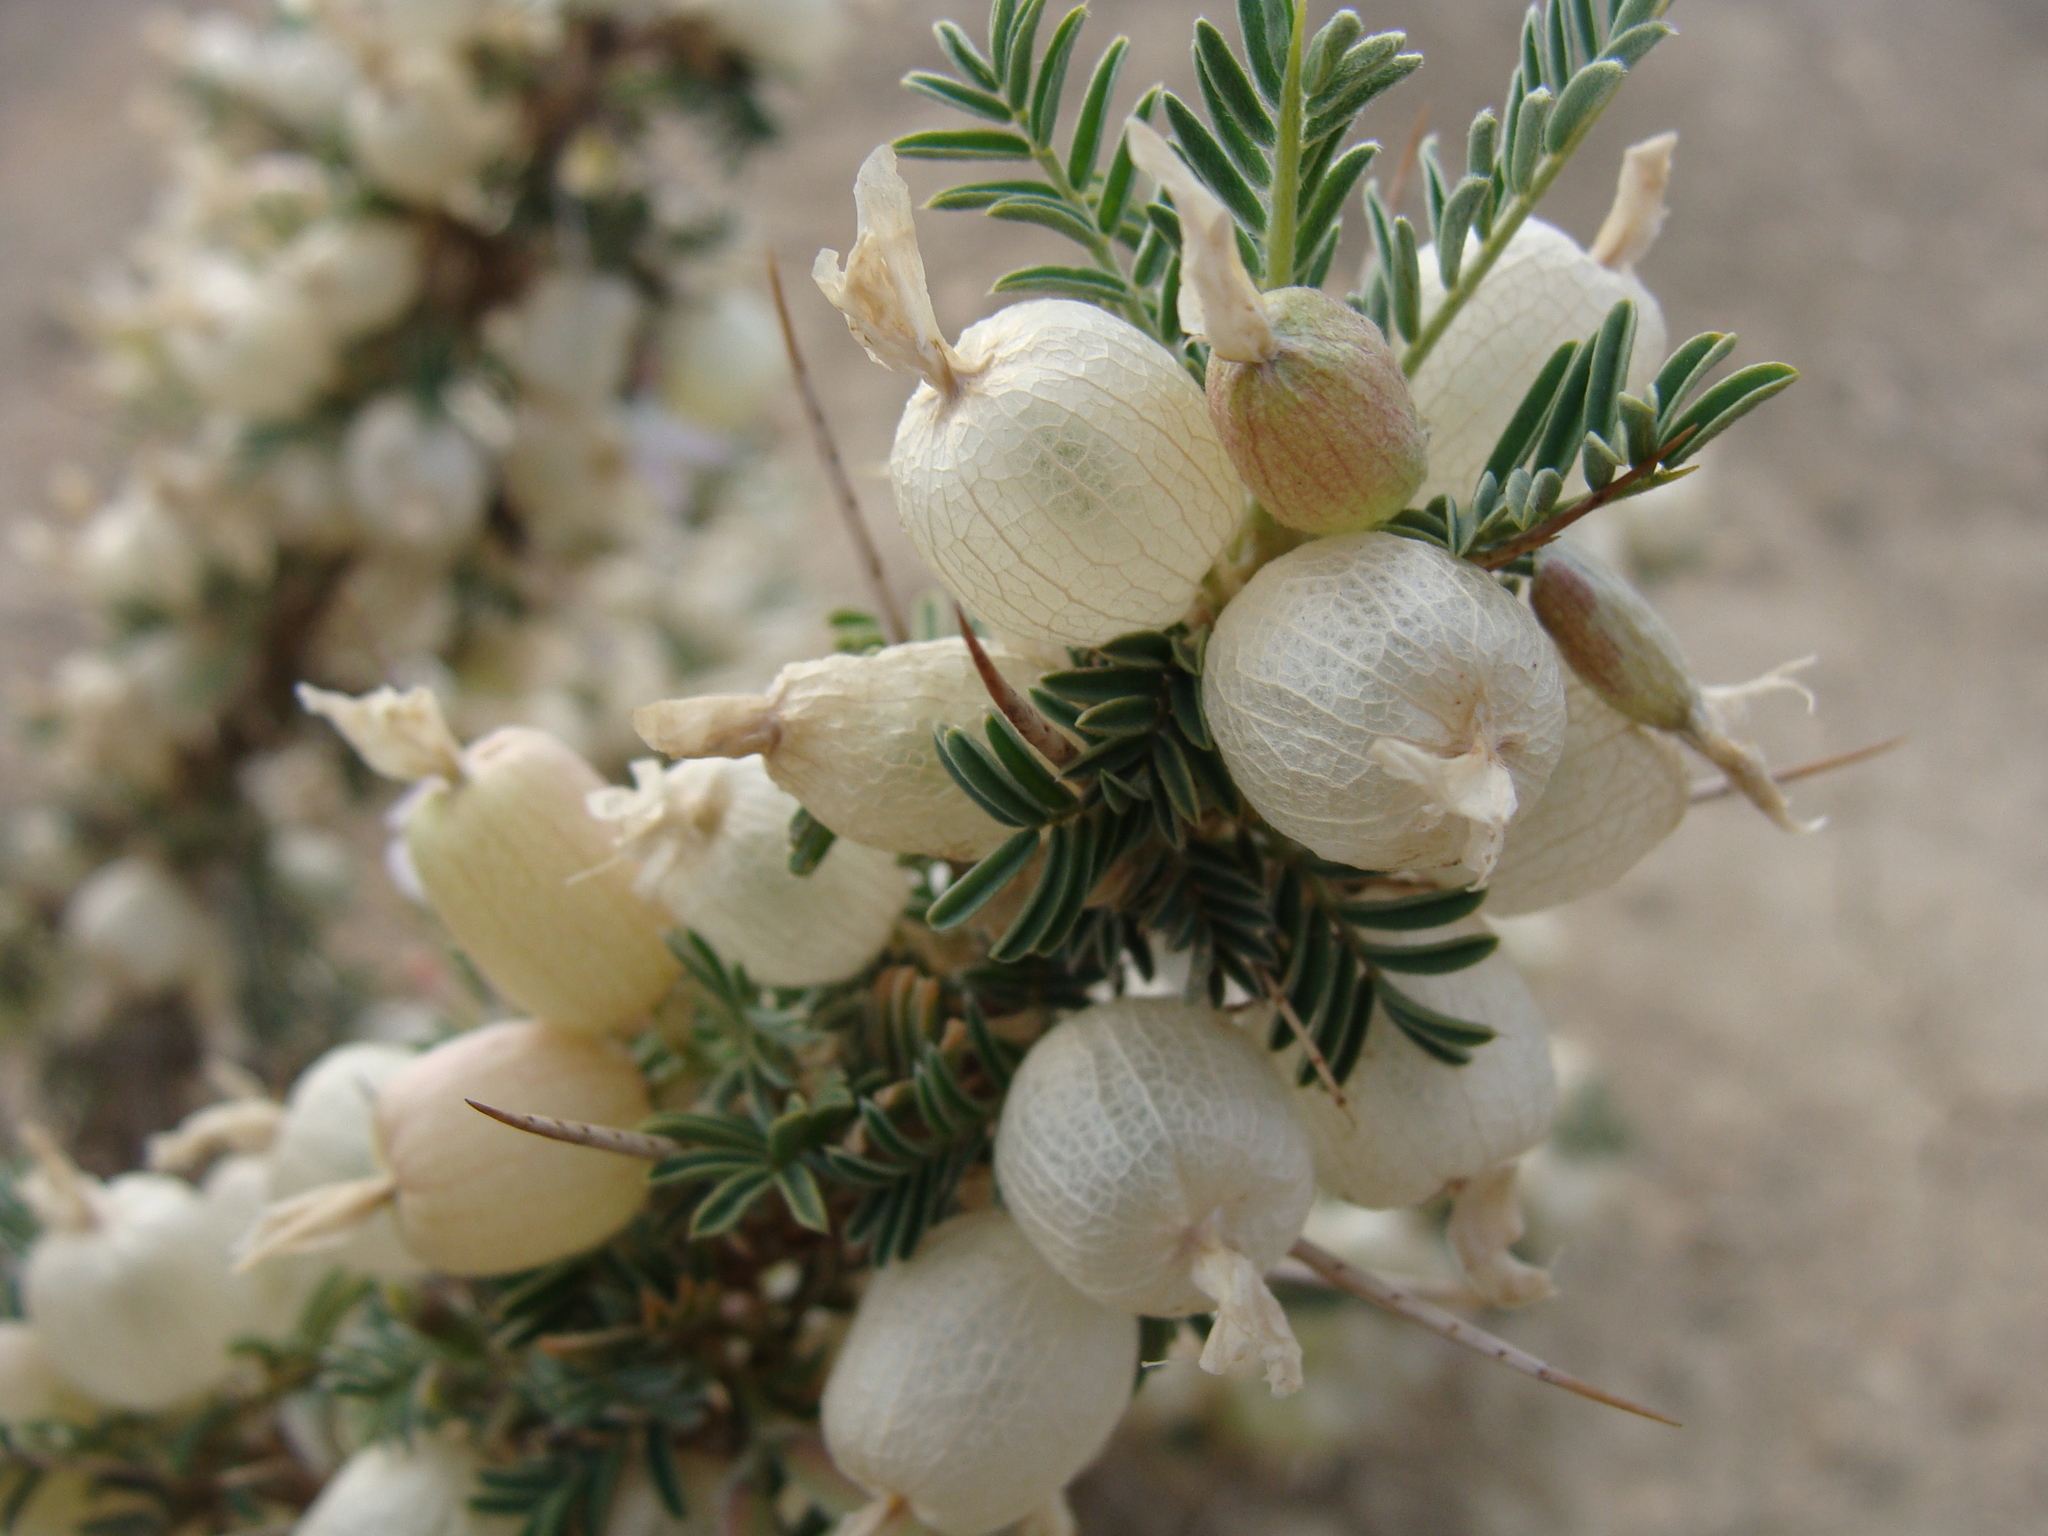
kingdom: Plantae
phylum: Tracheophyta
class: Magnoliopsida
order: Fabales
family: Fabaceae
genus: Astragalus
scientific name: Astragalus armatus
